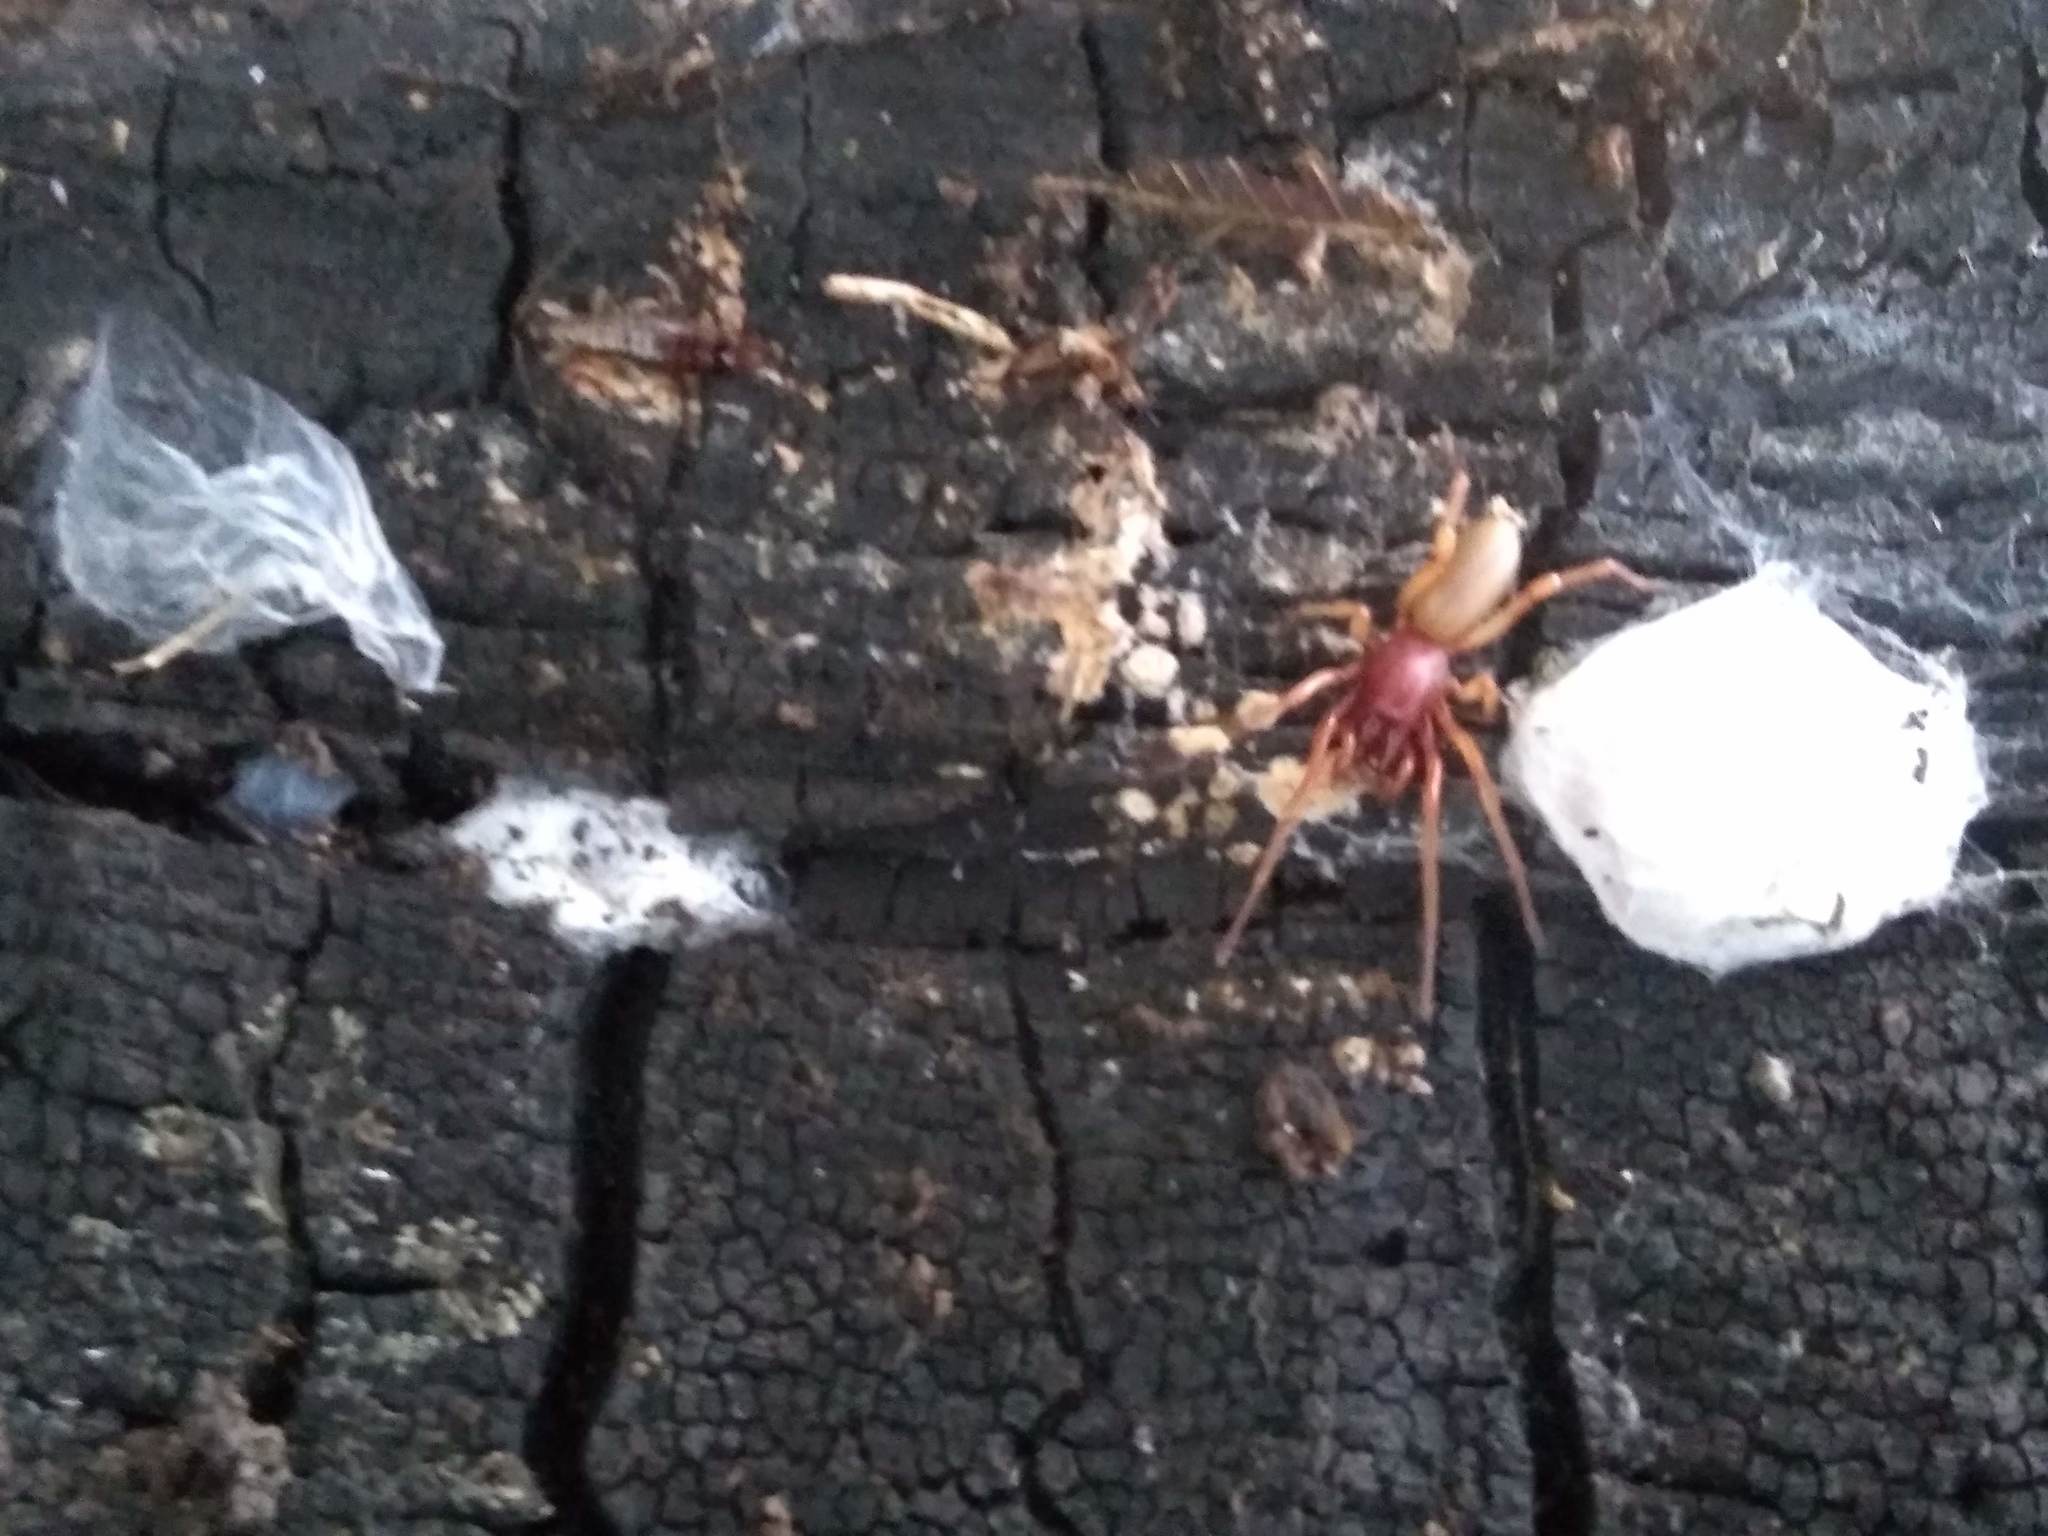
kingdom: Animalia
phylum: Arthropoda
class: Arachnida
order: Araneae
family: Dysderidae
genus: Dysdera
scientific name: Dysdera crocata
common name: Woodlouse spider
